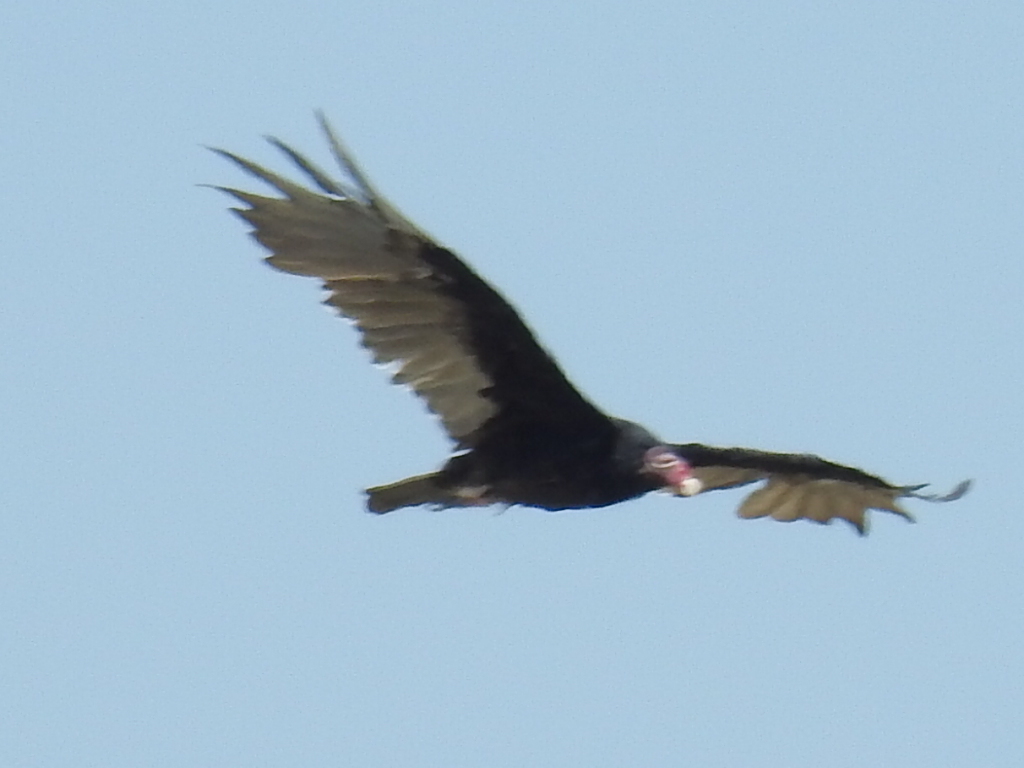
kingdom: Animalia
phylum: Chordata
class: Aves
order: Accipitriformes
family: Cathartidae
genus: Cathartes
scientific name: Cathartes aura
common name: Turkey vulture
